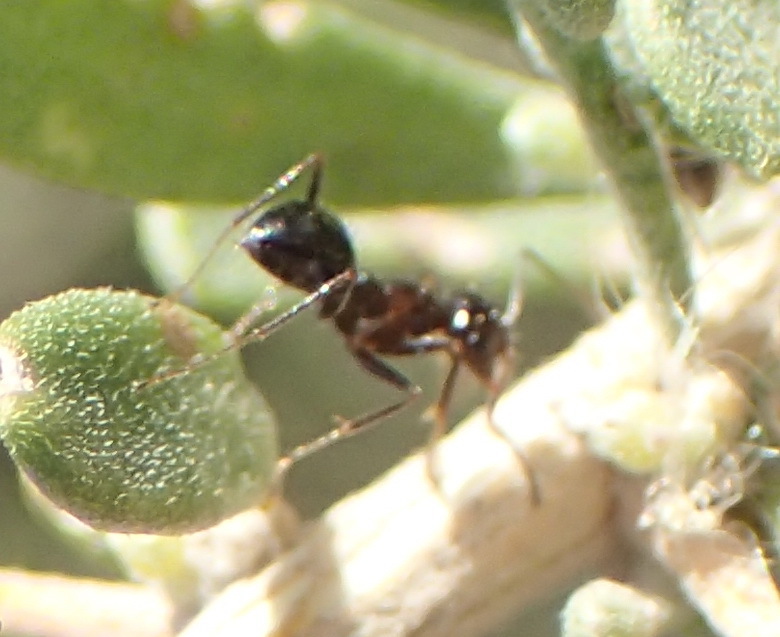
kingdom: Animalia
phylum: Arthropoda
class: Insecta
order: Hymenoptera
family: Formicidae
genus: Anoplolepis
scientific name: Anoplolepis steingroeveri
